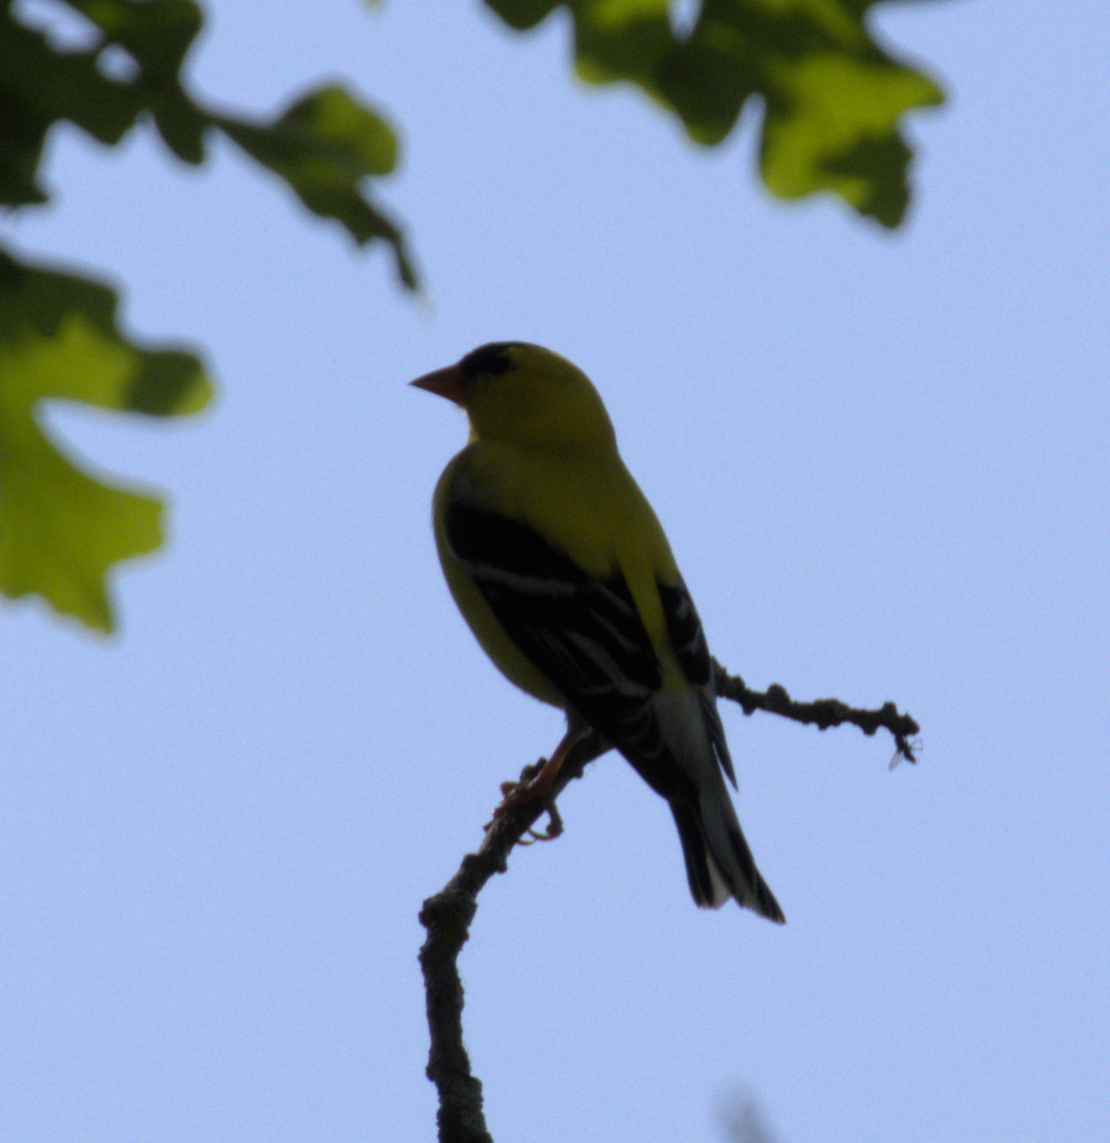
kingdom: Animalia
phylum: Chordata
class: Aves
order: Passeriformes
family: Fringillidae
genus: Spinus
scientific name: Spinus tristis
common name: American goldfinch
